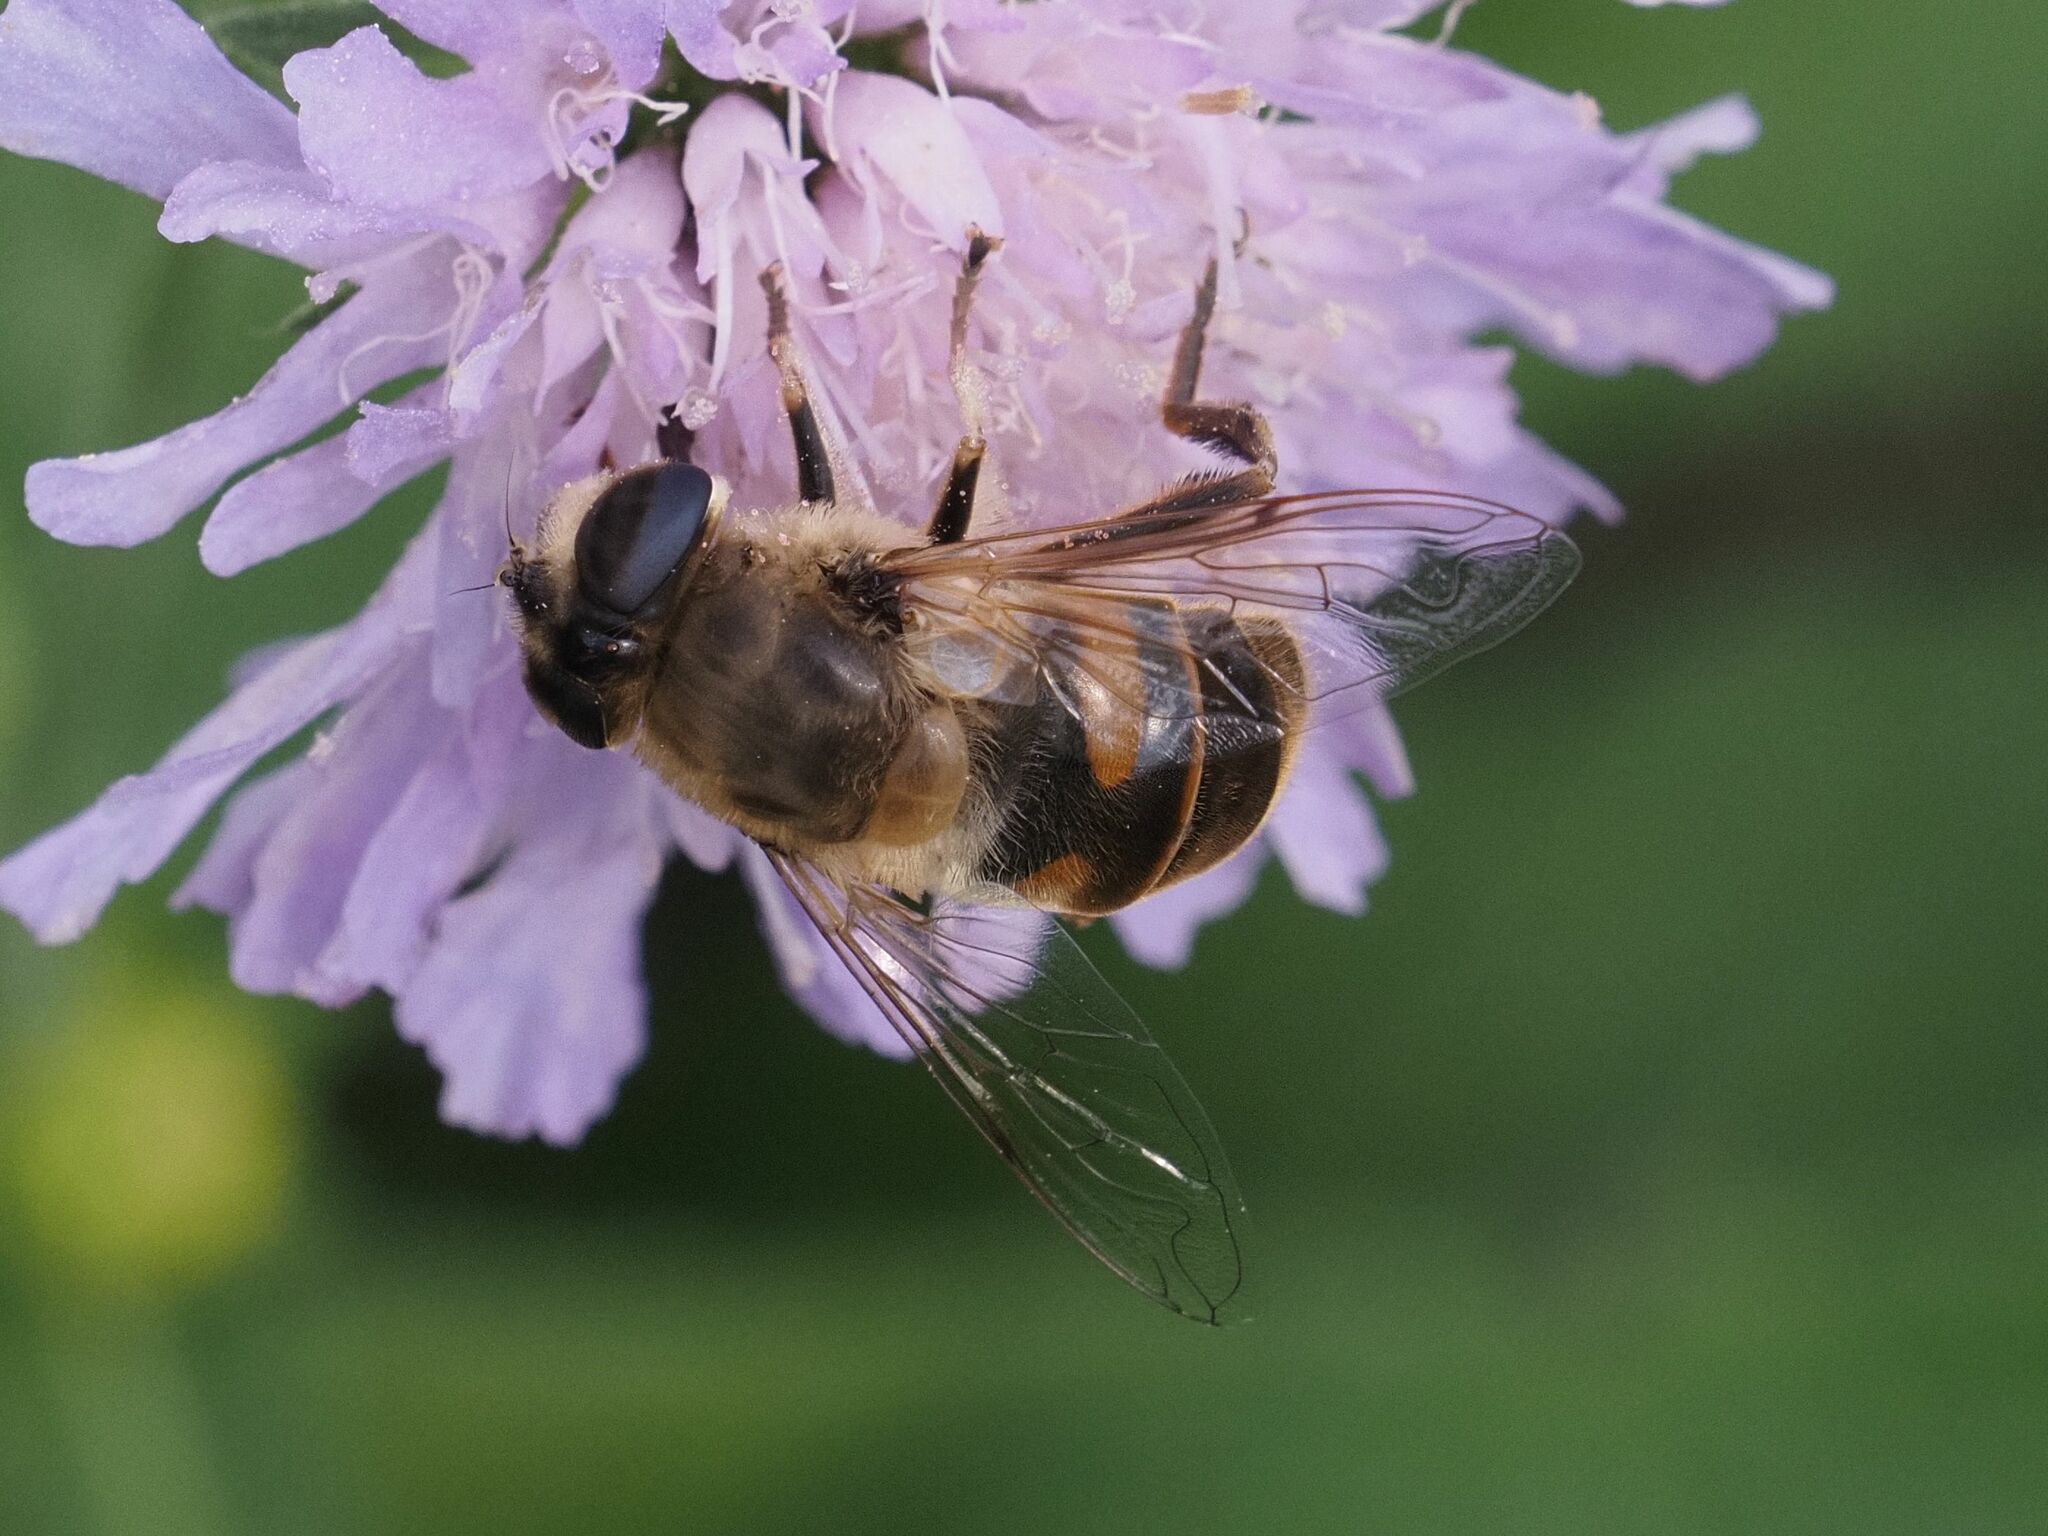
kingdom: Animalia
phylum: Arthropoda
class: Insecta
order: Diptera
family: Syrphidae
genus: Eristalis
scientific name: Eristalis tenax
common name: Drone fly
